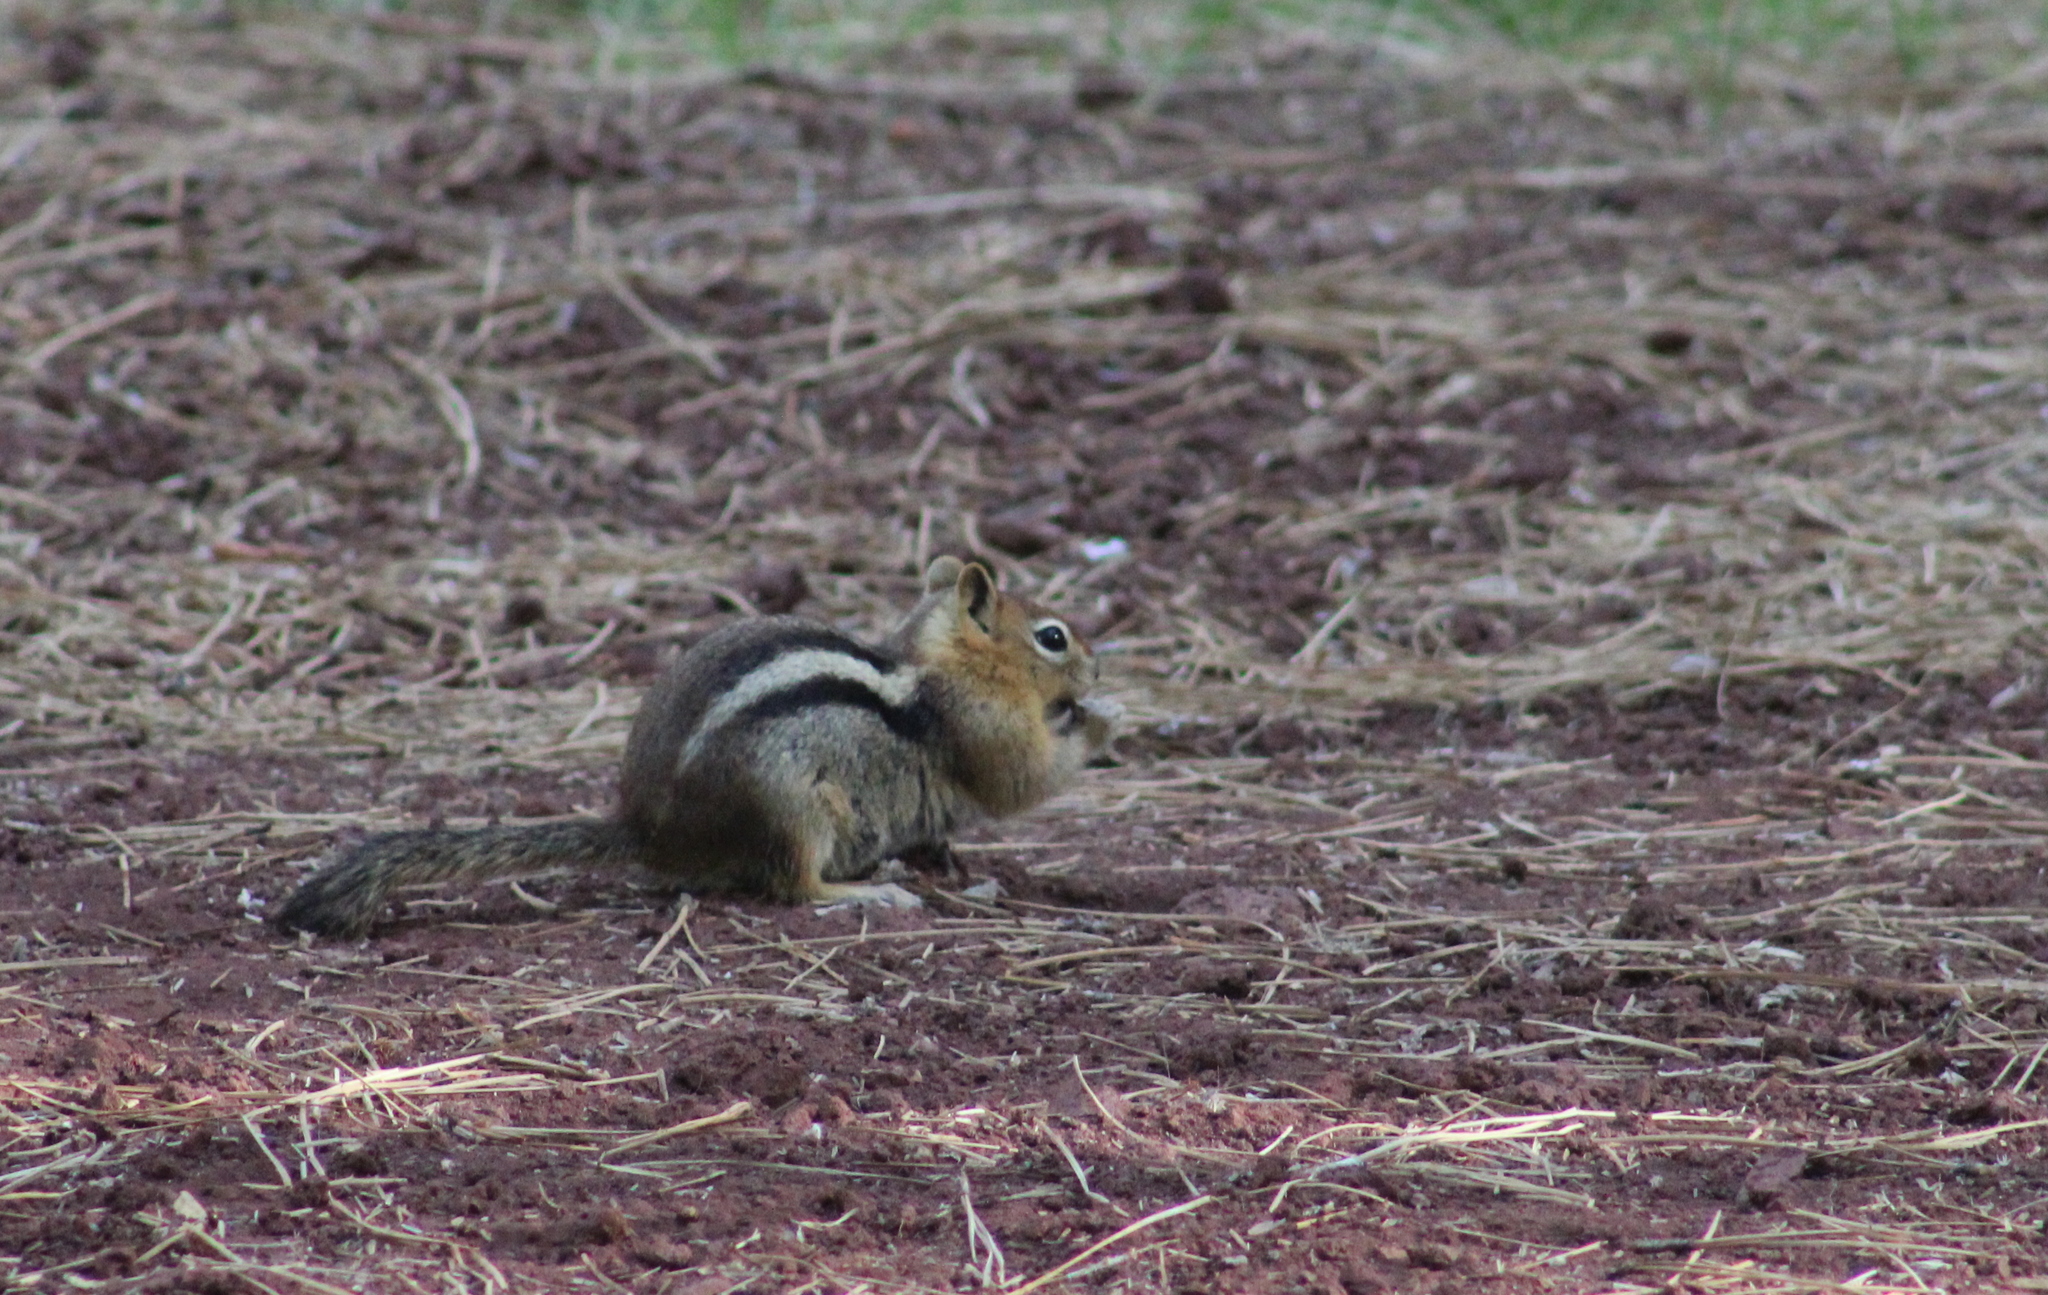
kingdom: Animalia
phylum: Chordata
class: Mammalia
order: Rodentia
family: Sciuridae
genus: Callospermophilus
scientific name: Callospermophilus lateralis
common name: Golden-mantled ground squirrel
